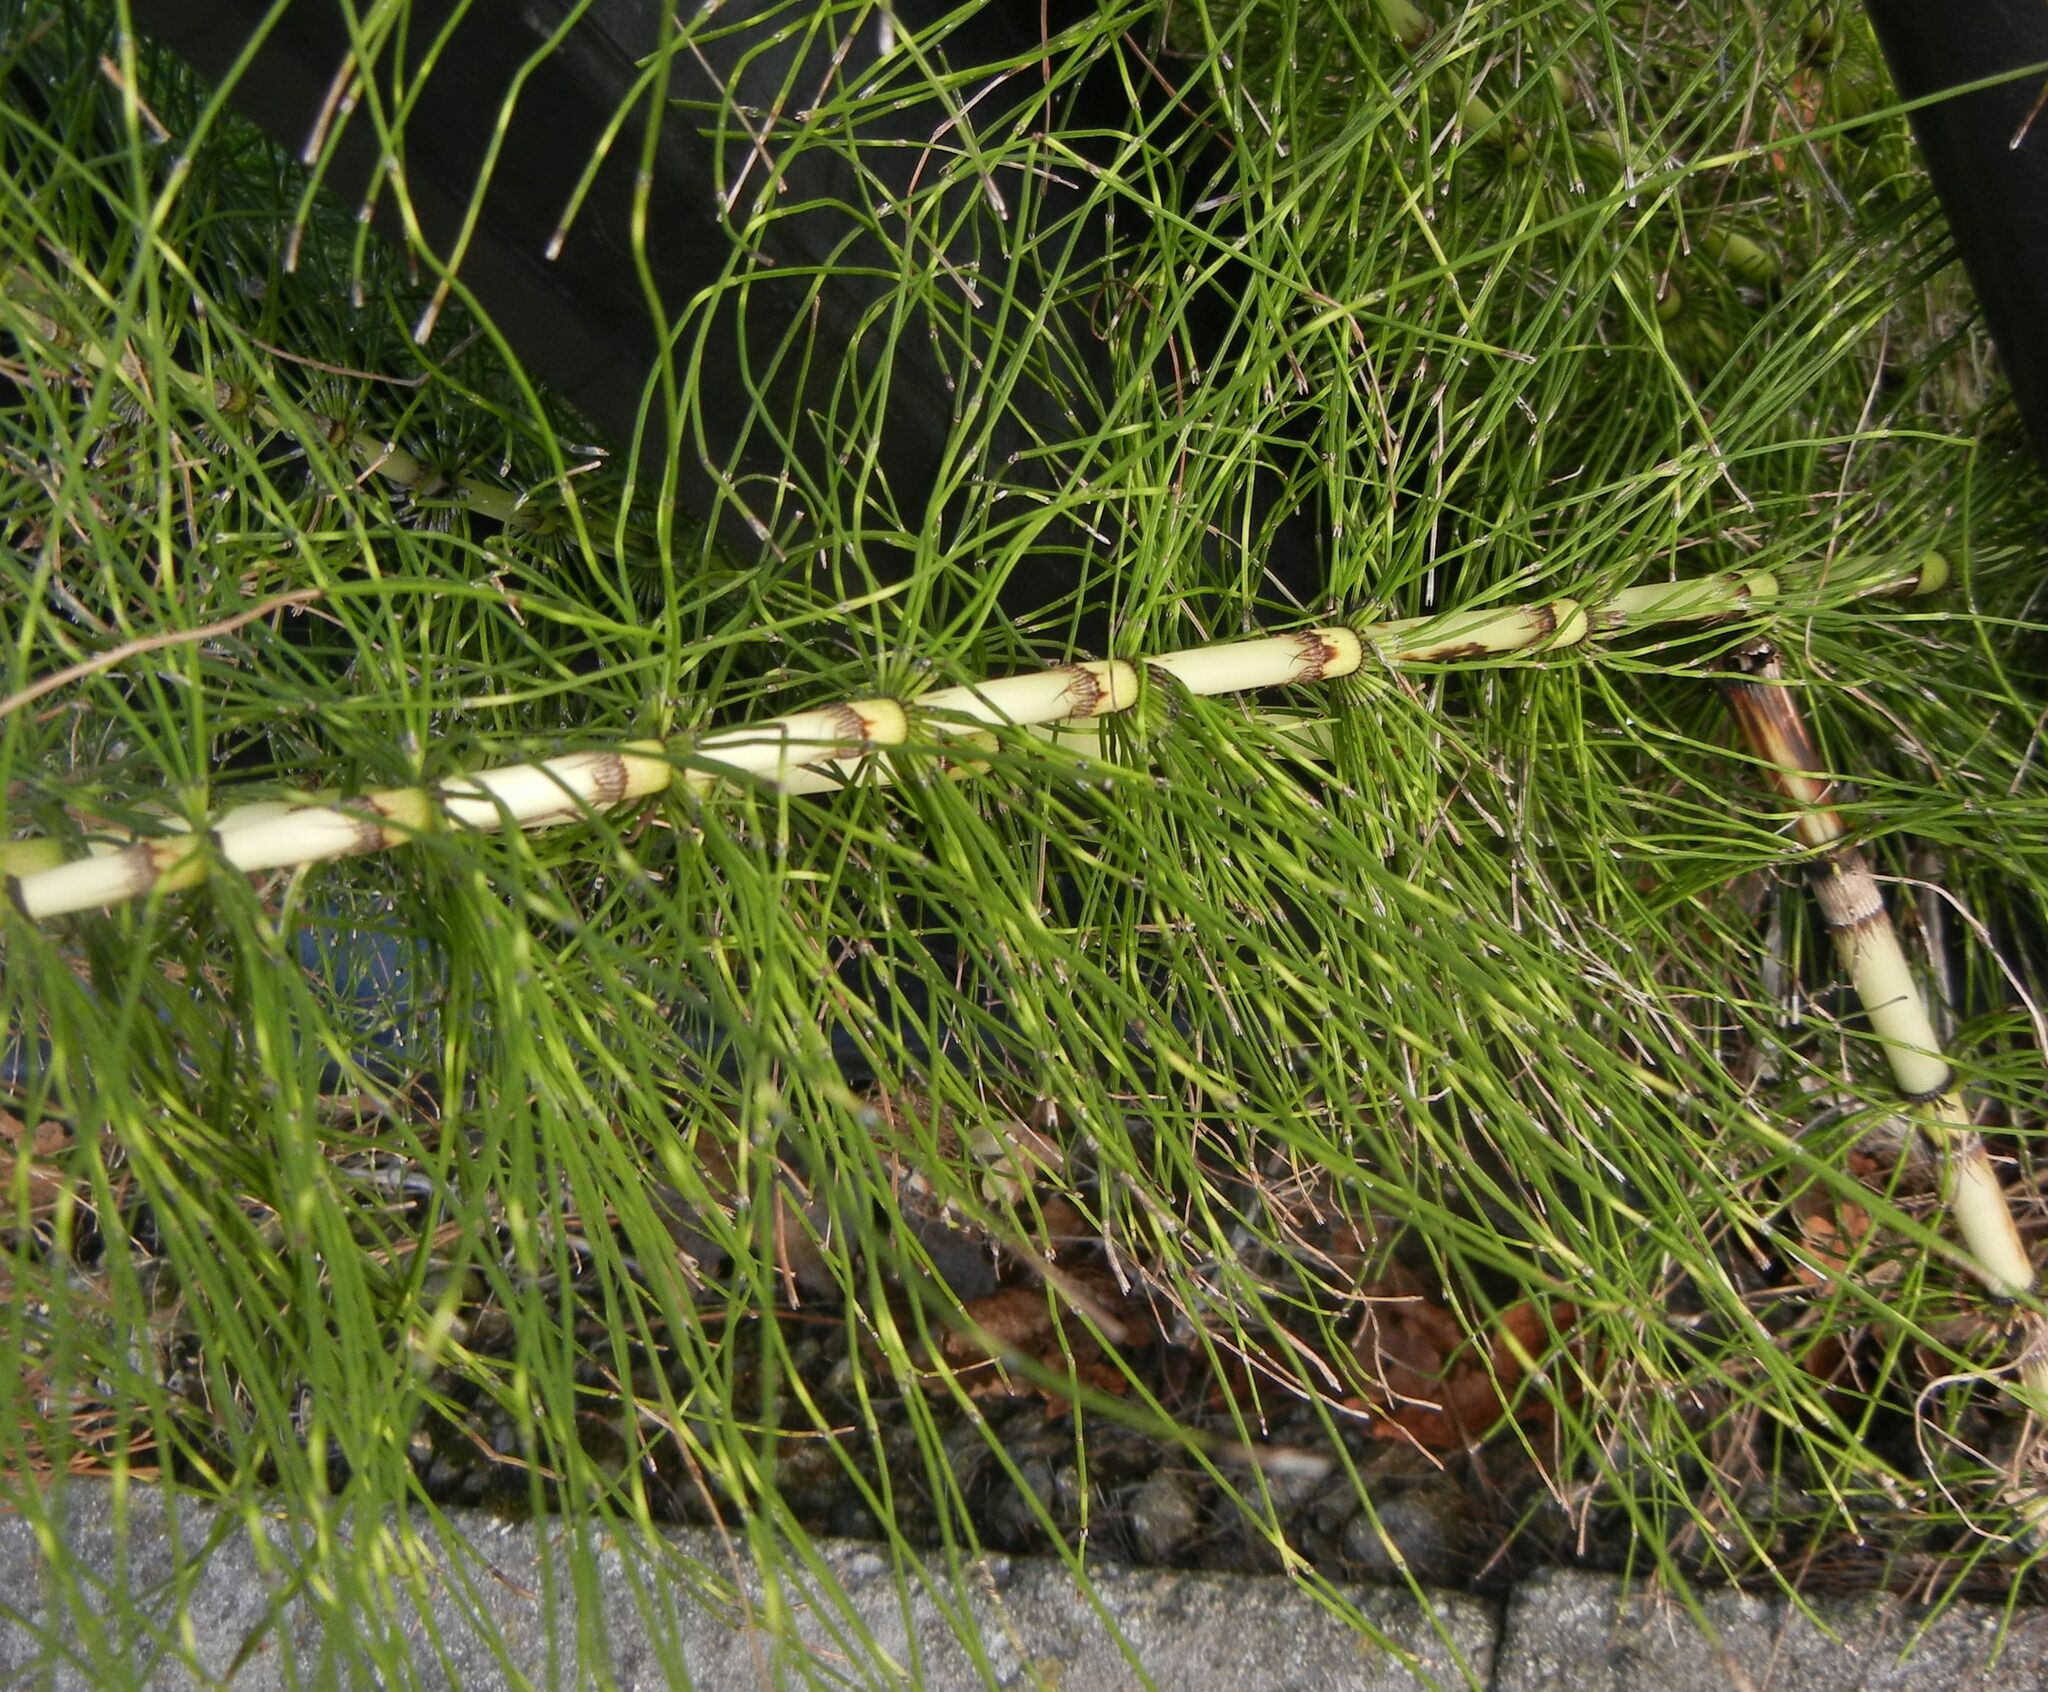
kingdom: Plantae
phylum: Tracheophyta
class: Polypodiopsida
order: Equisetales
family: Equisetaceae
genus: Equisetum
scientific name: Equisetum telmateia
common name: Great horsetail
